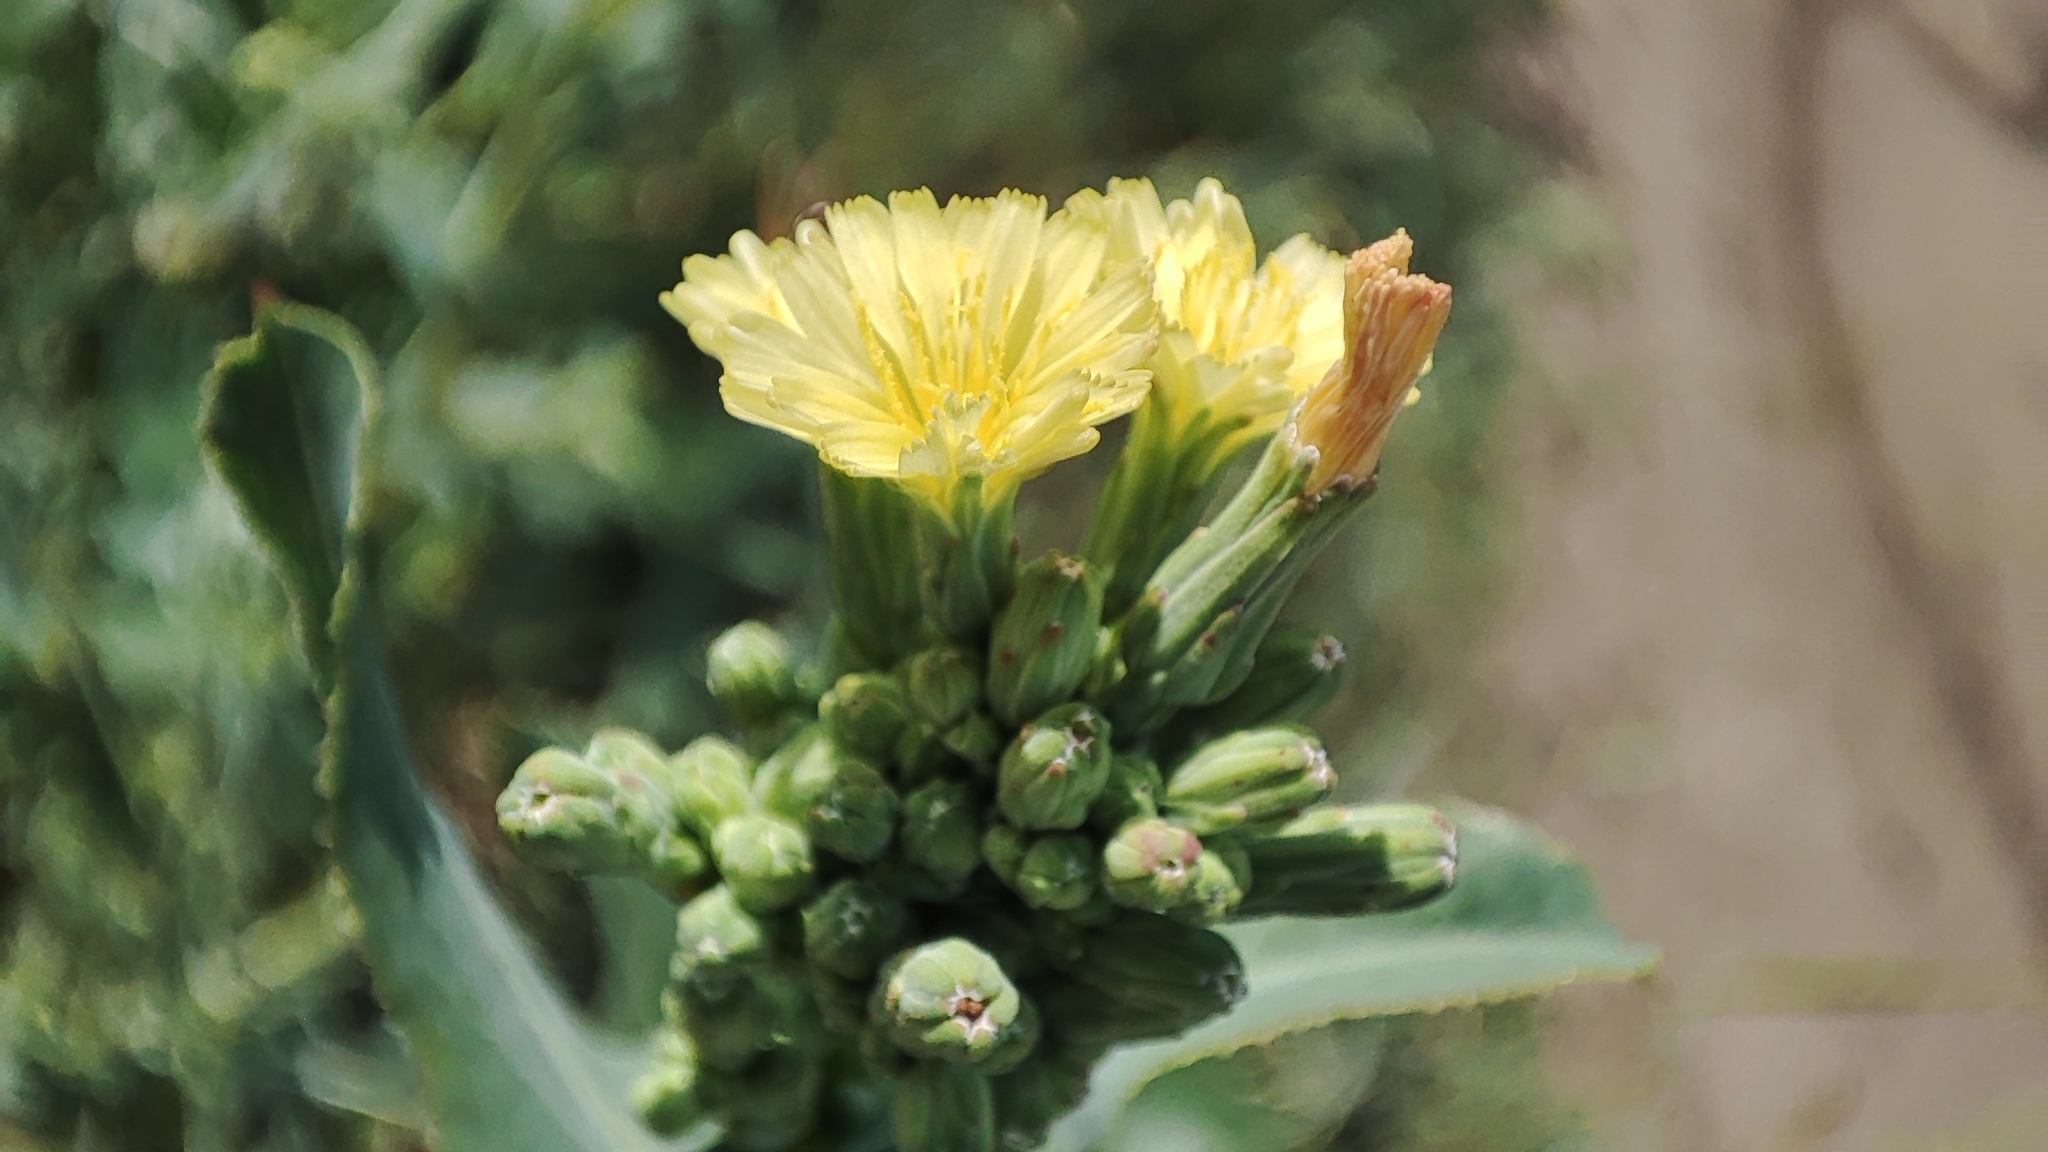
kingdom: Plantae
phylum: Tracheophyta
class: Magnoliopsida
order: Asterales
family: Asteraceae
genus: Lactuca
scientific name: Lactuca serriola
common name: Prickly lettuce
